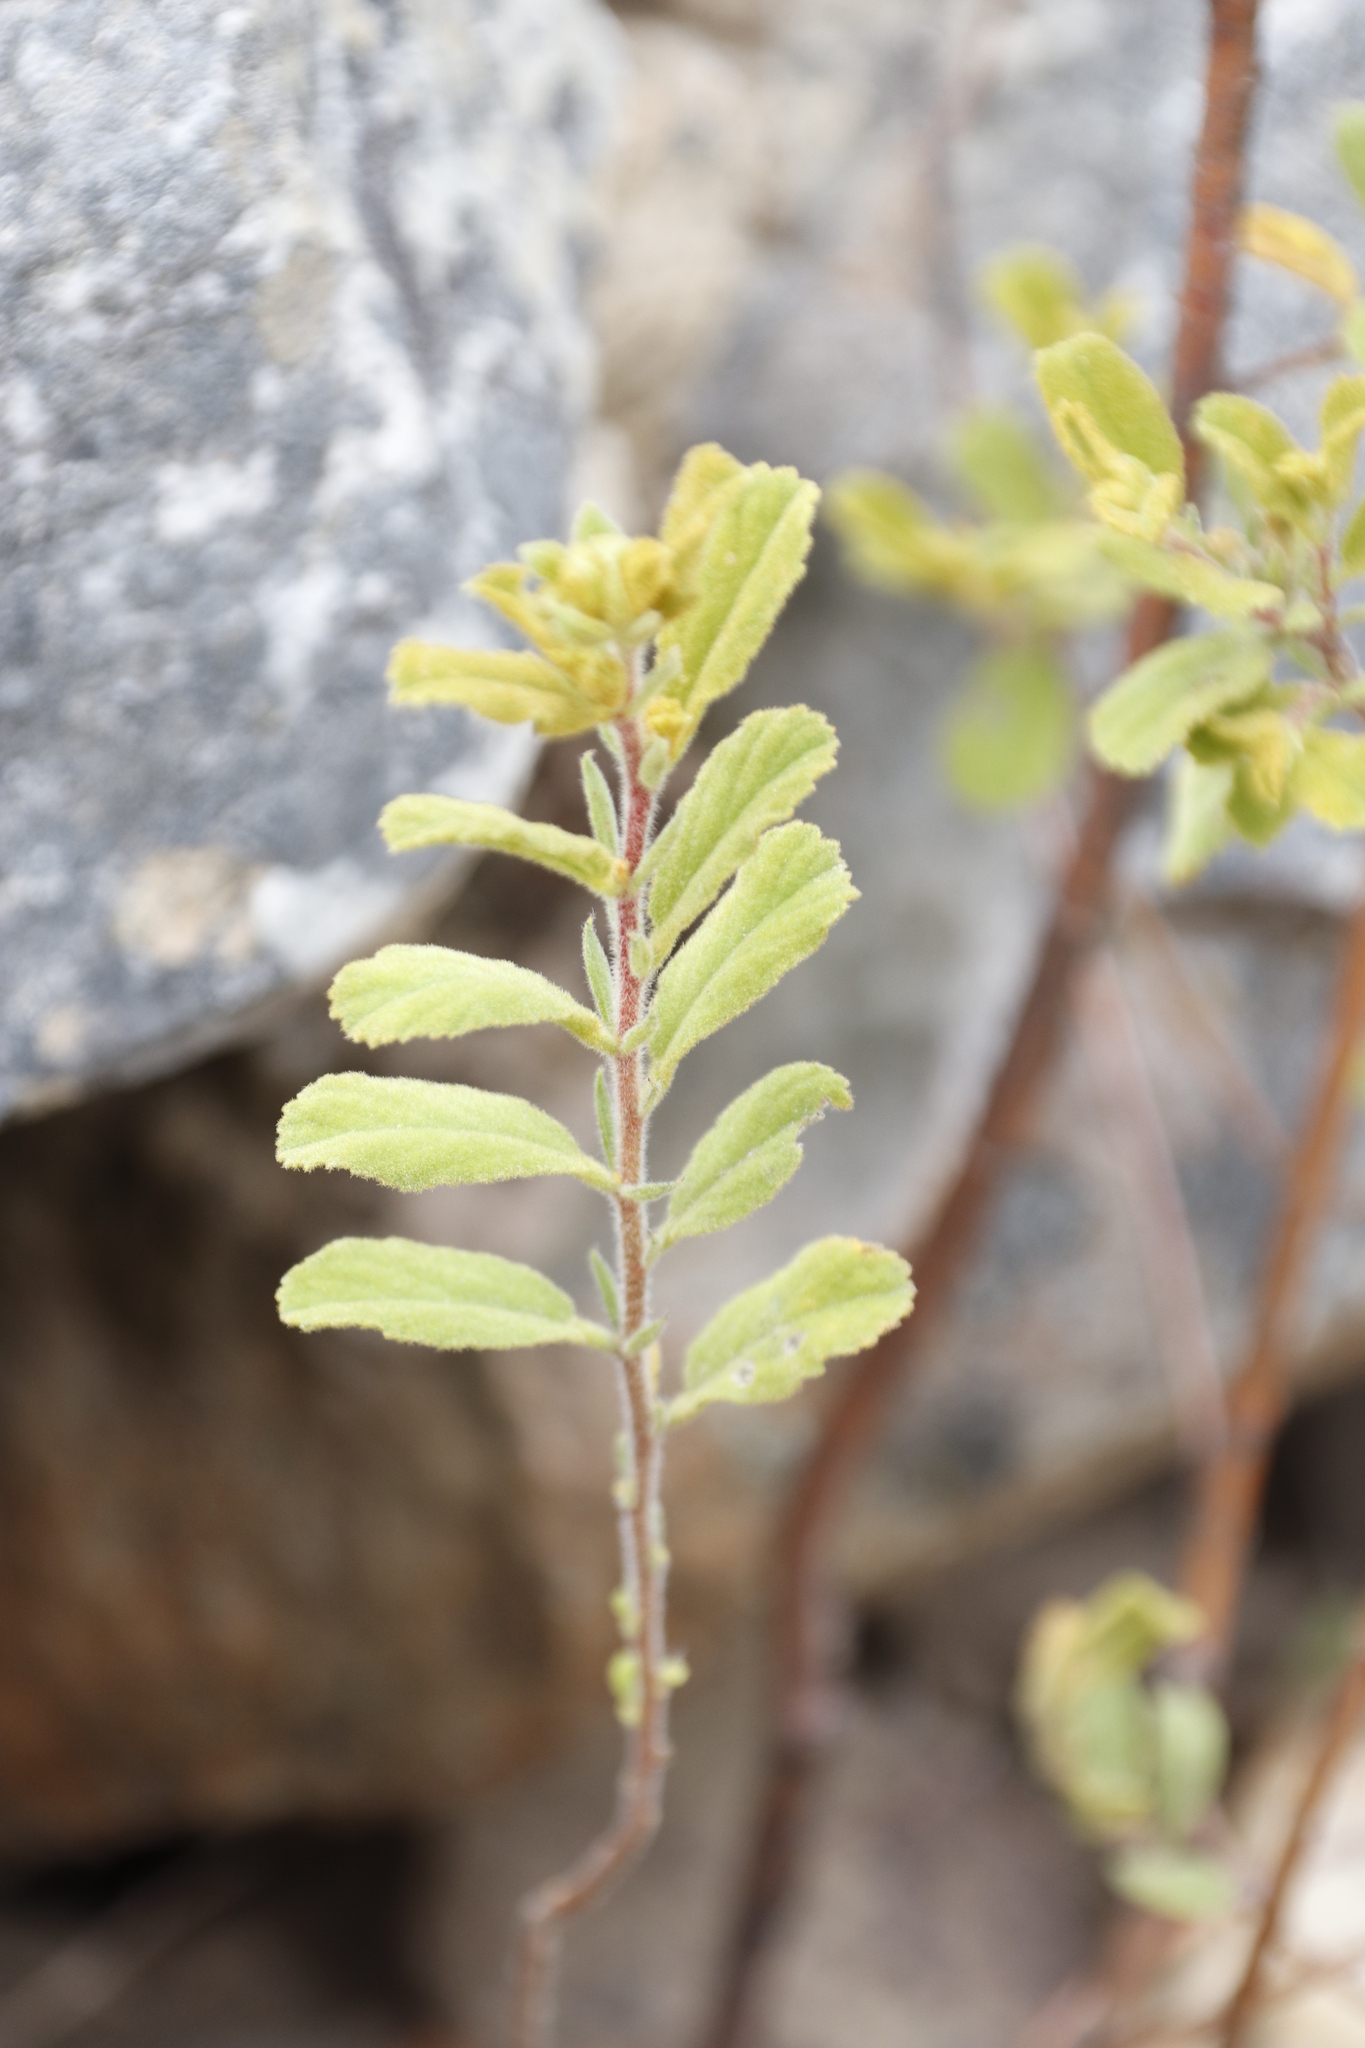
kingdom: Plantae
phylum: Tracheophyta
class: Magnoliopsida
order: Malvales
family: Malvaceae
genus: Hermannia
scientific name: Hermannia salviifolia
